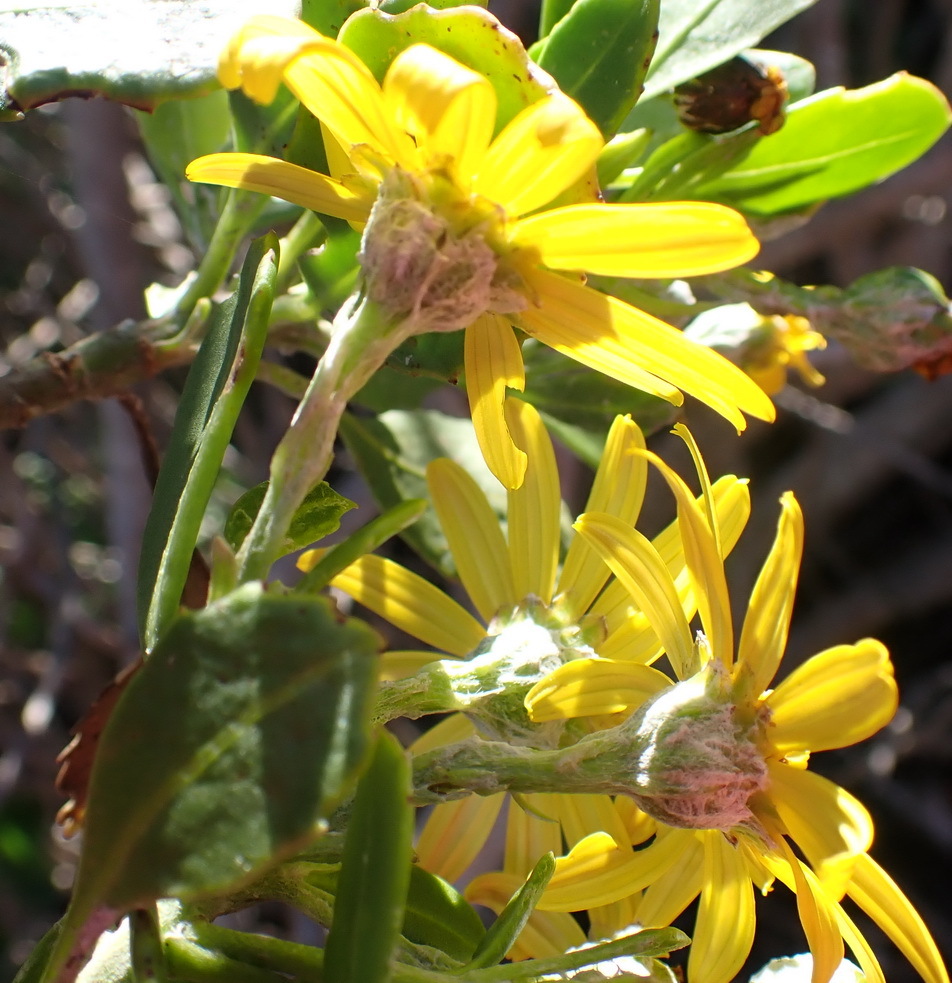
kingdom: Plantae
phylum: Tracheophyta
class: Magnoliopsida
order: Asterales
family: Asteraceae
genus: Osteospermum
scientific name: Osteospermum moniliferum
